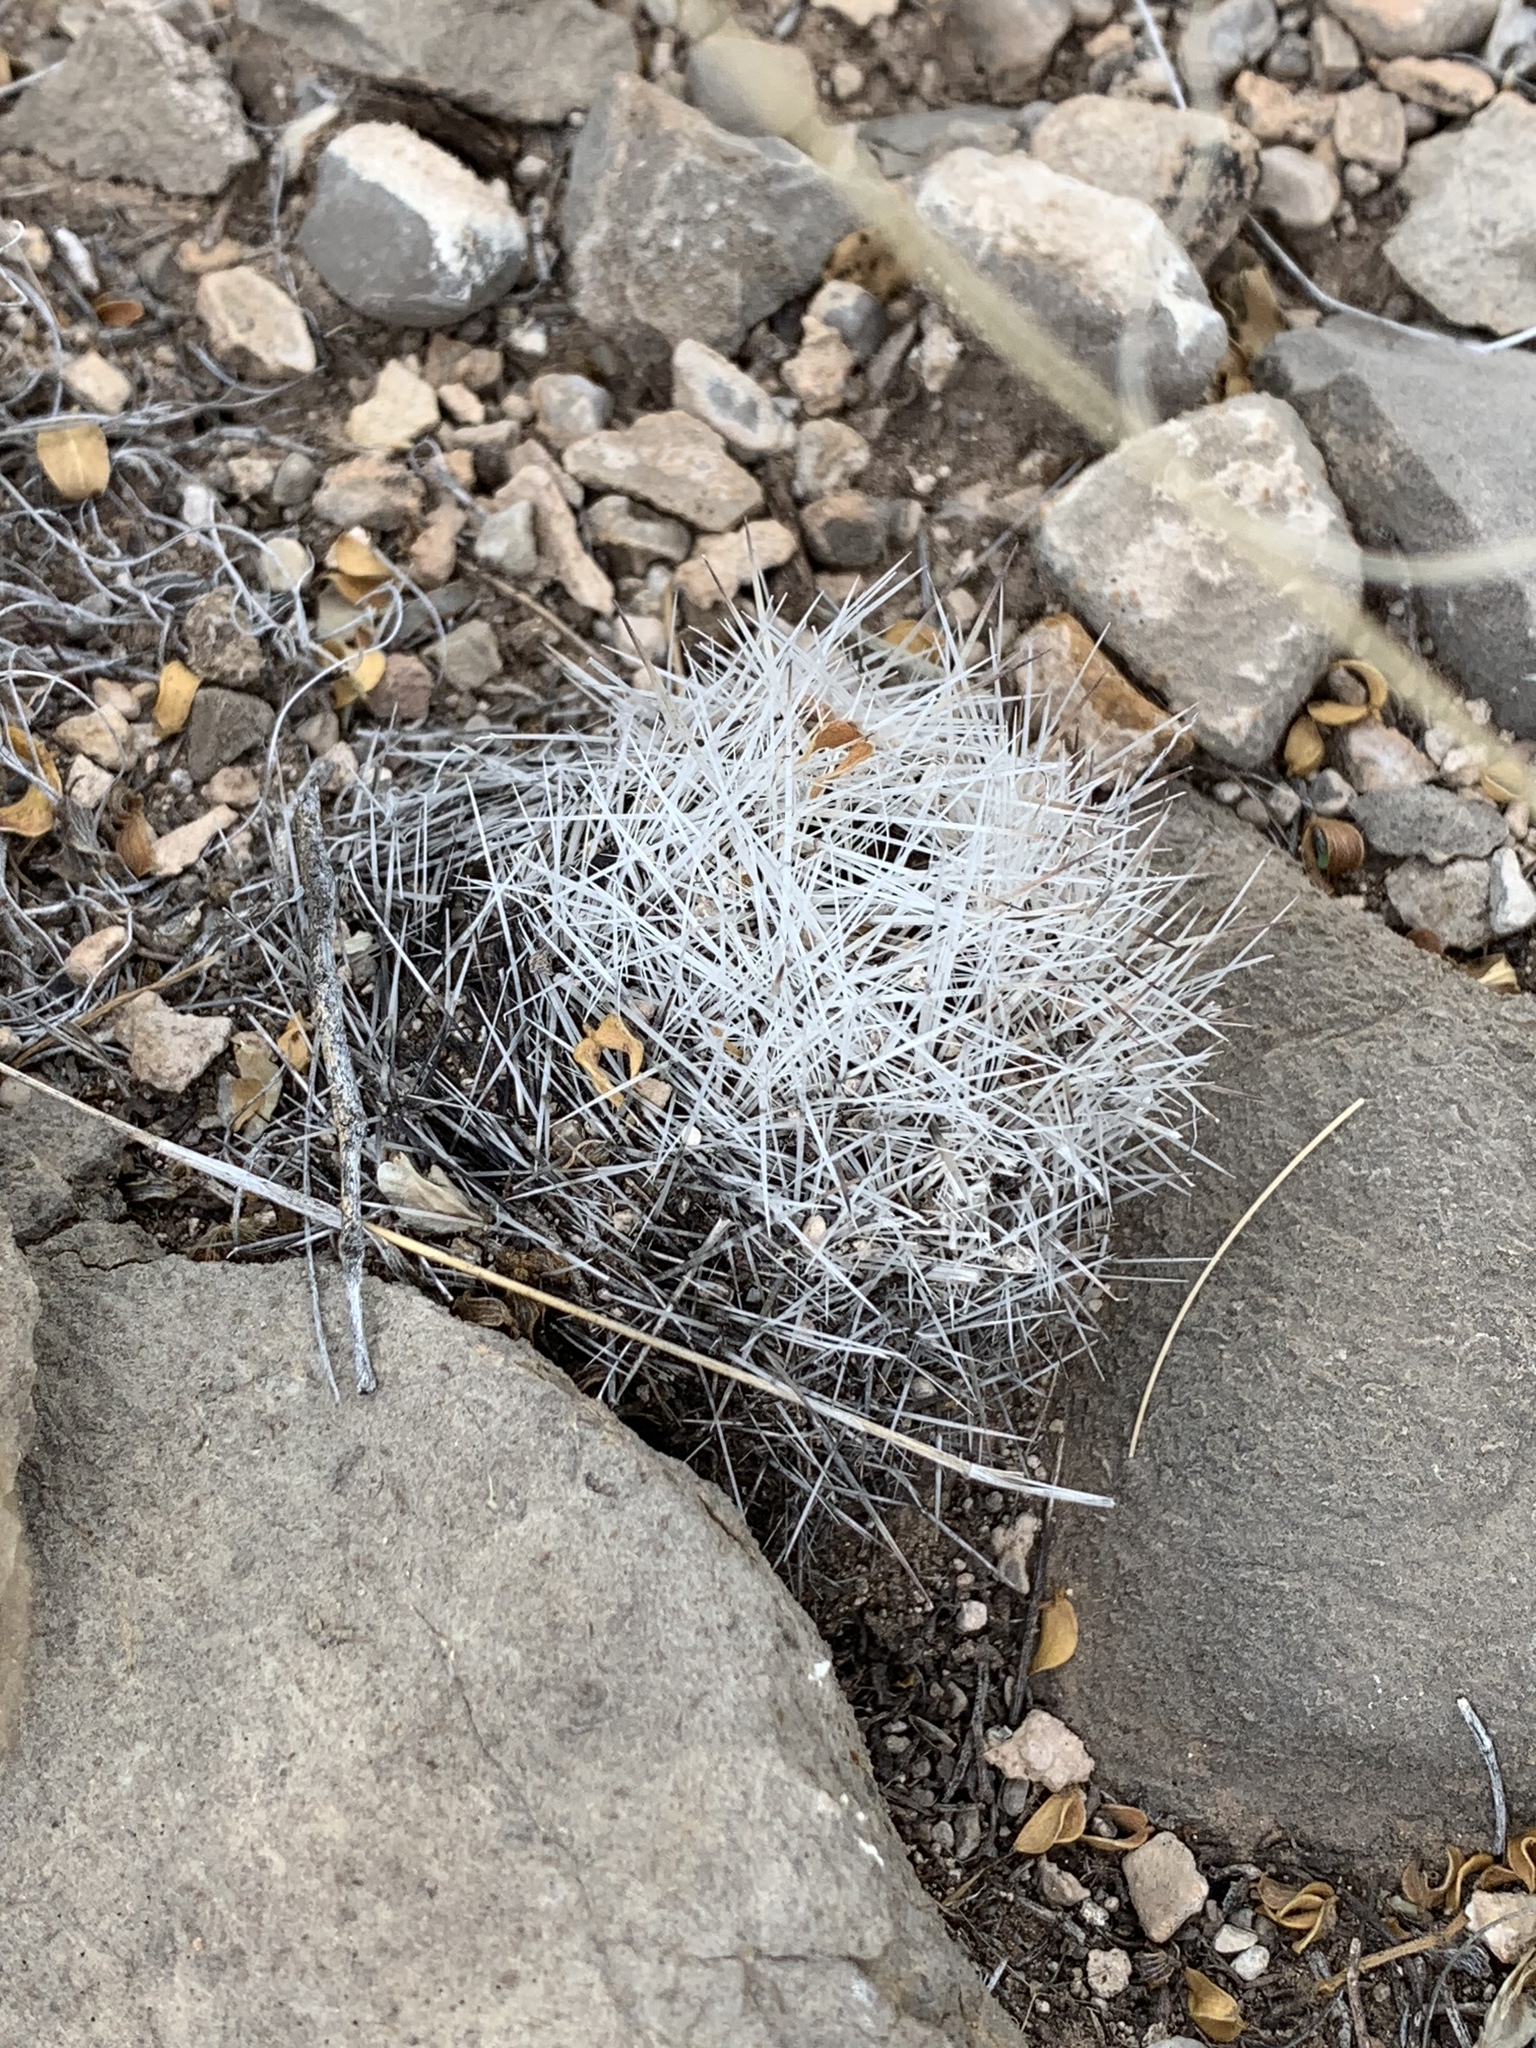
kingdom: Plantae
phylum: Tracheophyta
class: Magnoliopsida
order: Caryophyllales
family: Cactaceae
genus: Pelecyphora
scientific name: Pelecyphora vivipara
